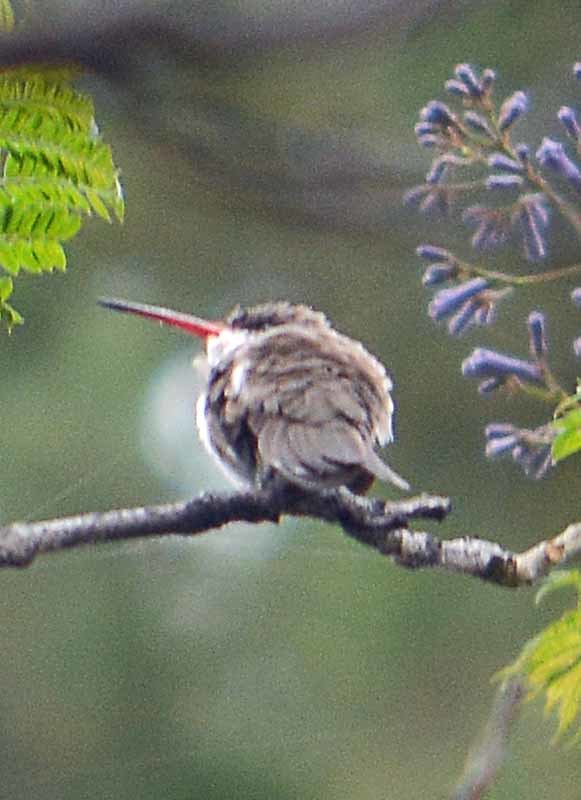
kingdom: Animalia
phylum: Chordata
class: Aves
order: Apodiformes
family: Trochilidae
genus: Leucolia
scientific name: Leucolia violiceps
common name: Violet-crowned hummingbird
